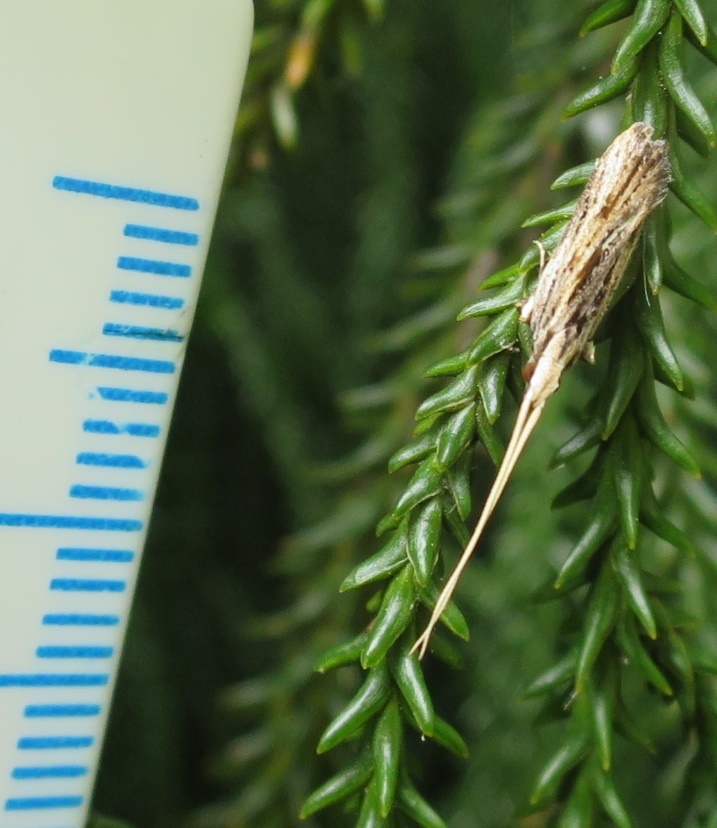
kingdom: Animalia
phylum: Arthropoda
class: Insecta
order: Lepidoptera
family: Lecithoceridae
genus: Sarisophora
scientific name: Sarisophora leucoscia
